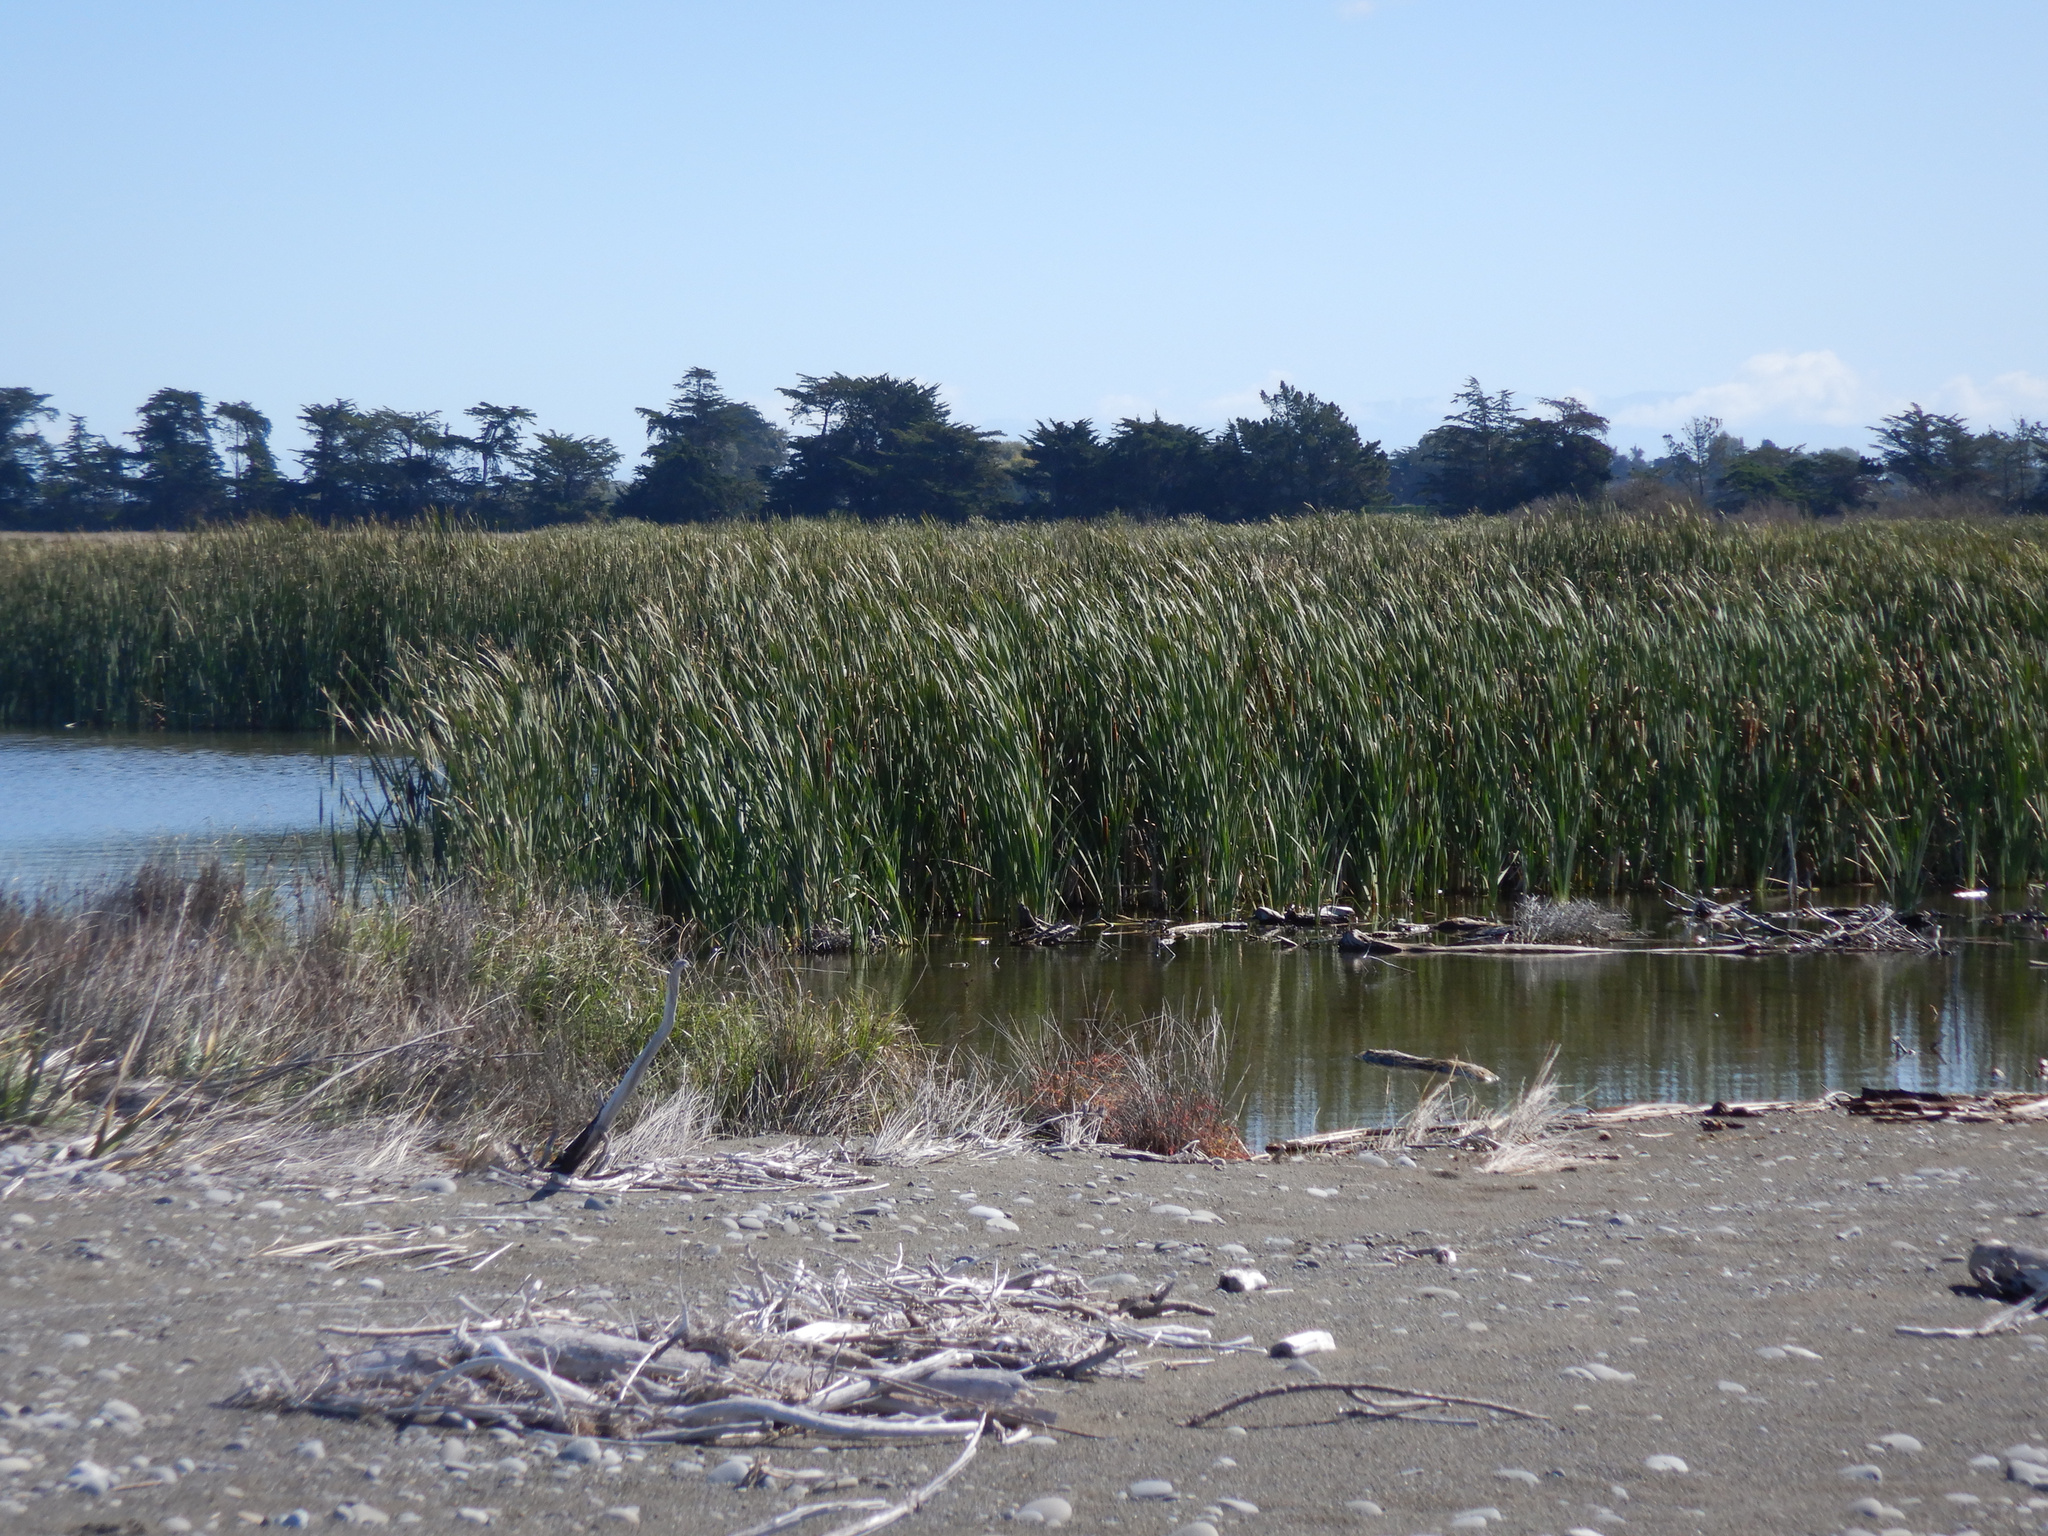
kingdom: Plantae
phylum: Tracheophyta
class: Liliopsida
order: Poales
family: Typhaceae
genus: Typha
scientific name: Typha orientalis
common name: Bullrush
